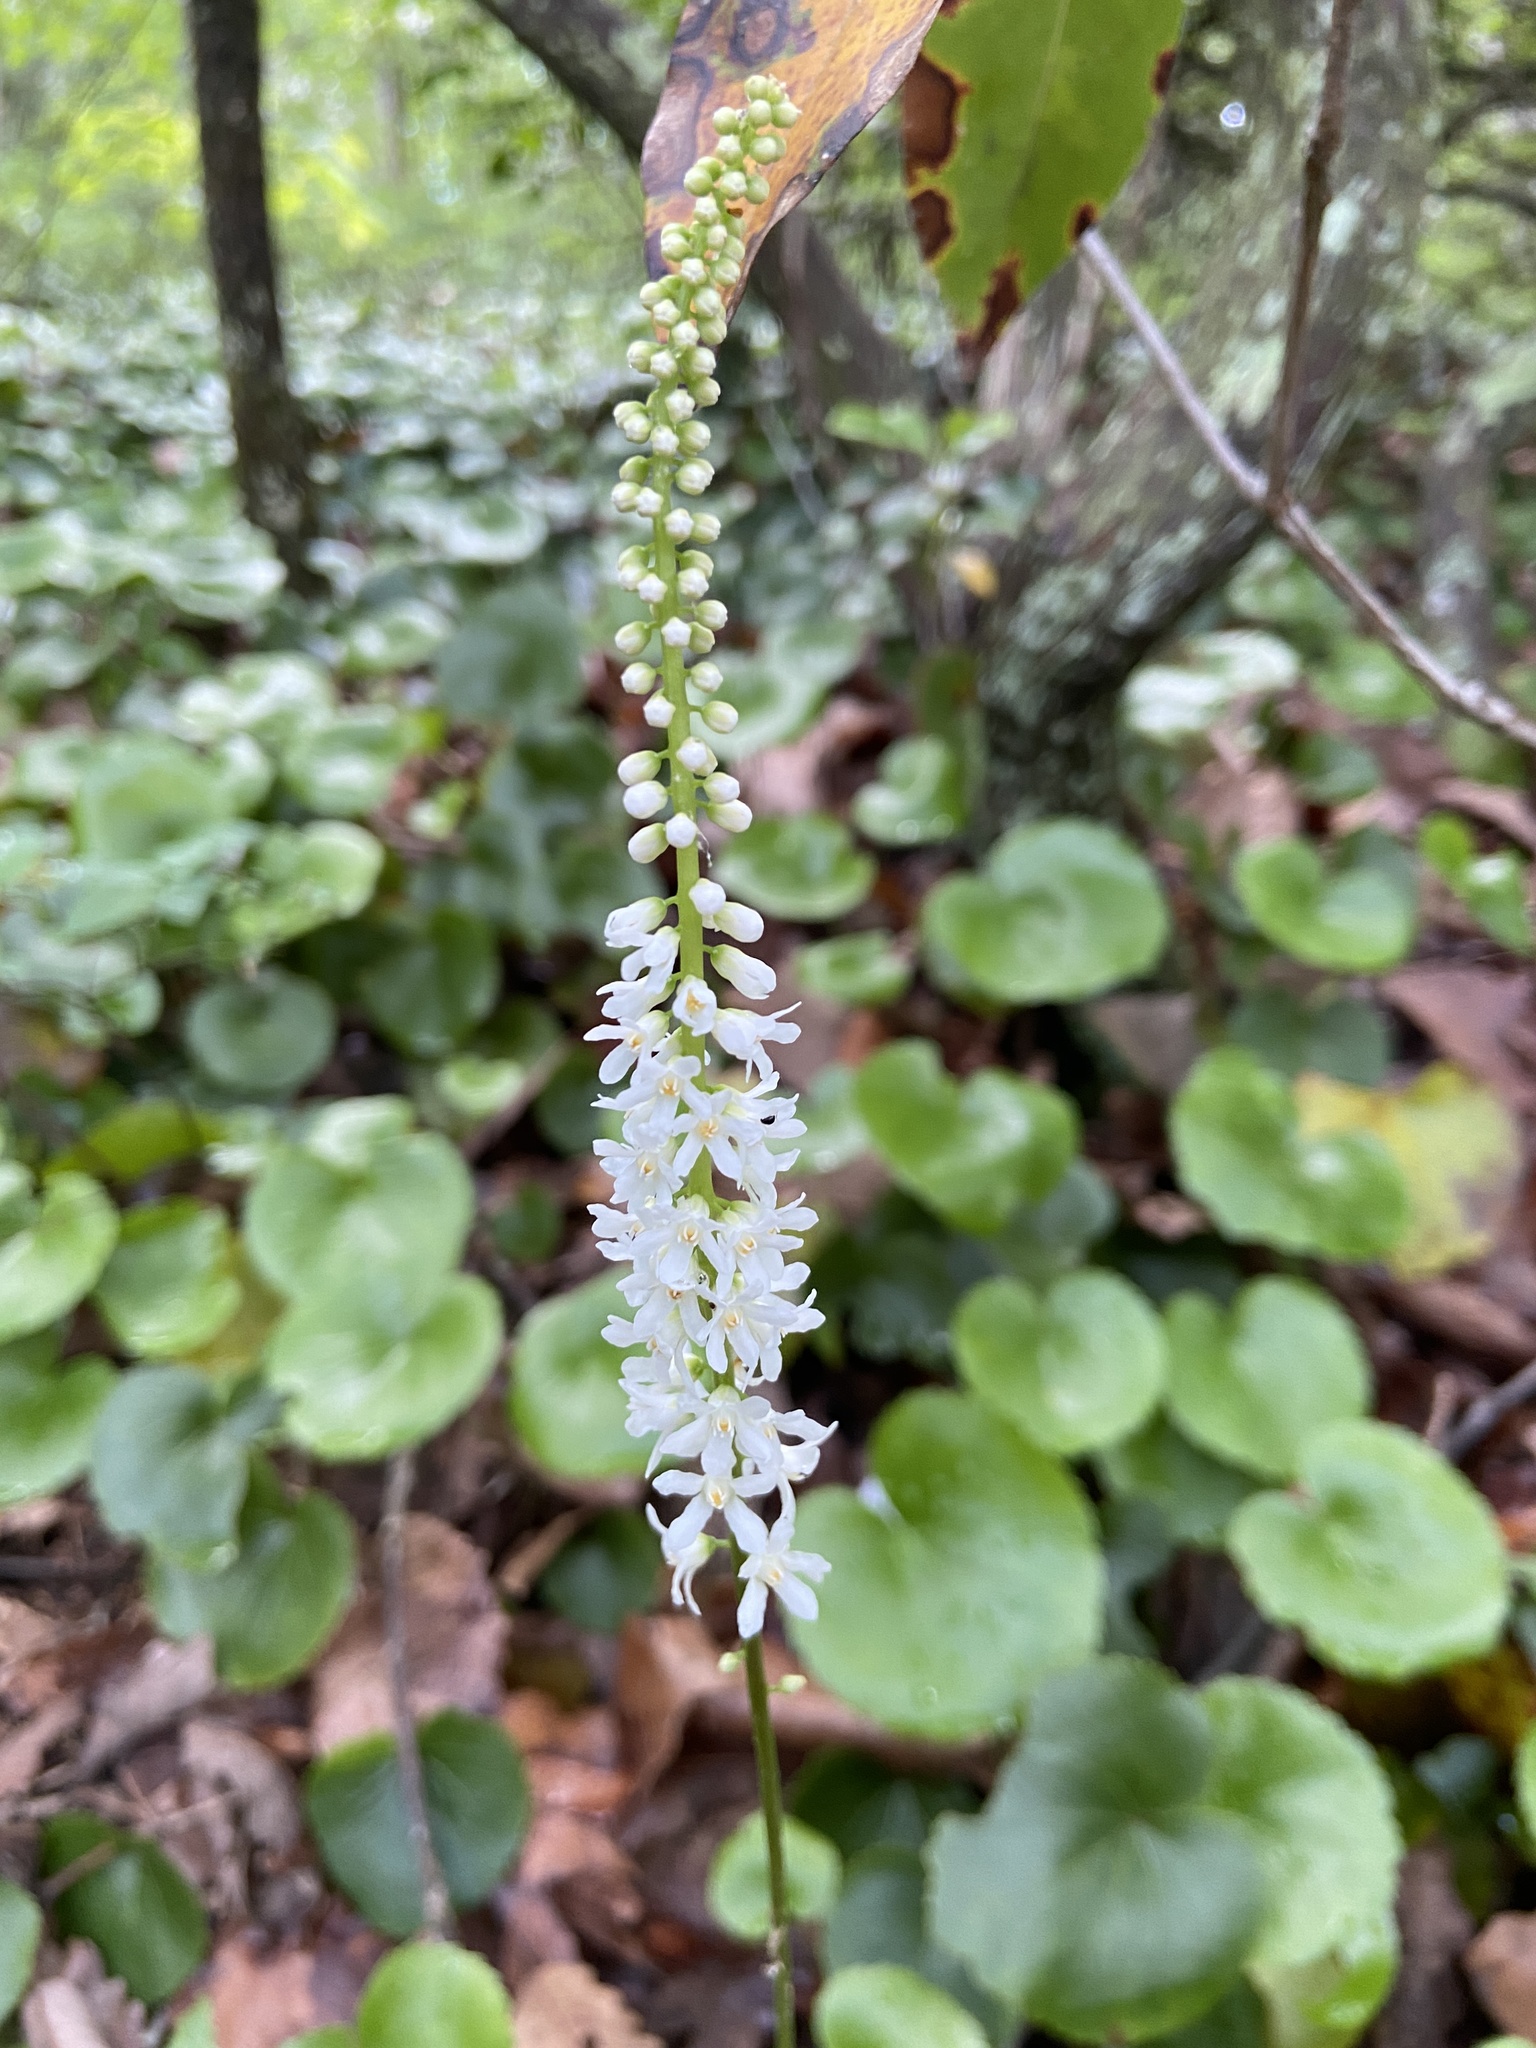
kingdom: Plantae
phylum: Tracheophyta
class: Magnoliopsida
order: Ericales
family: Diapensiaceae
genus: Galax
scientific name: Galax urceolata
